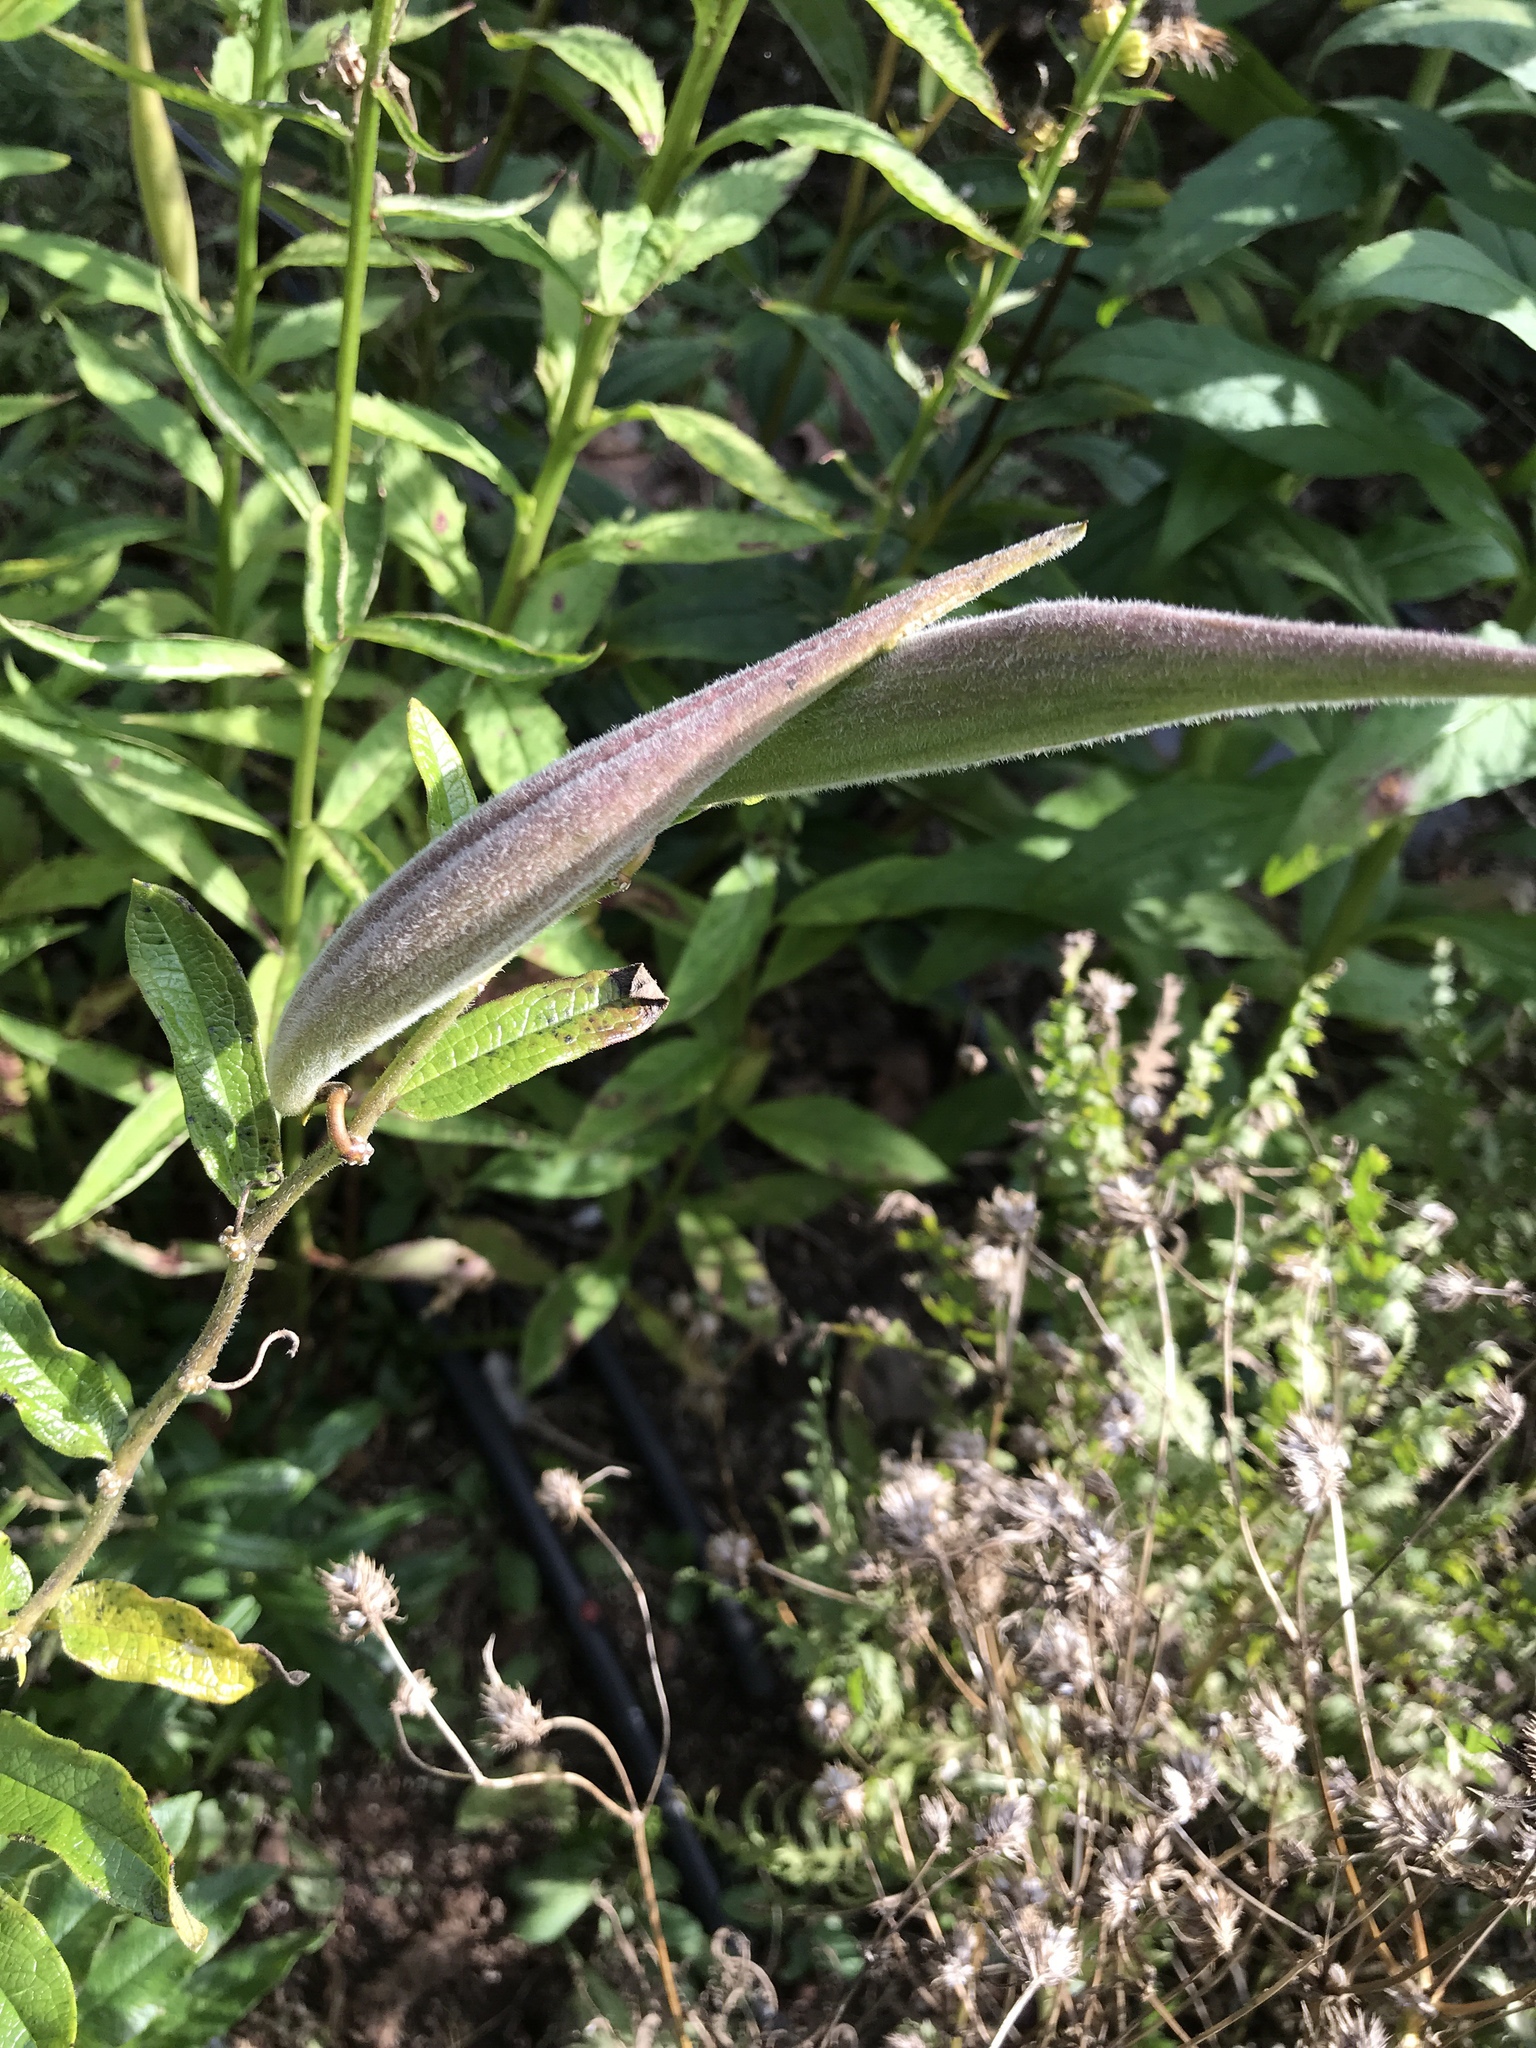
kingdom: Plantae
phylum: Tracheophyta
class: Magnoliopsida
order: Gentianales
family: Apocynaceae
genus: Asclepias
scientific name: Asclepias tuberosa
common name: Butterfly milkweed
